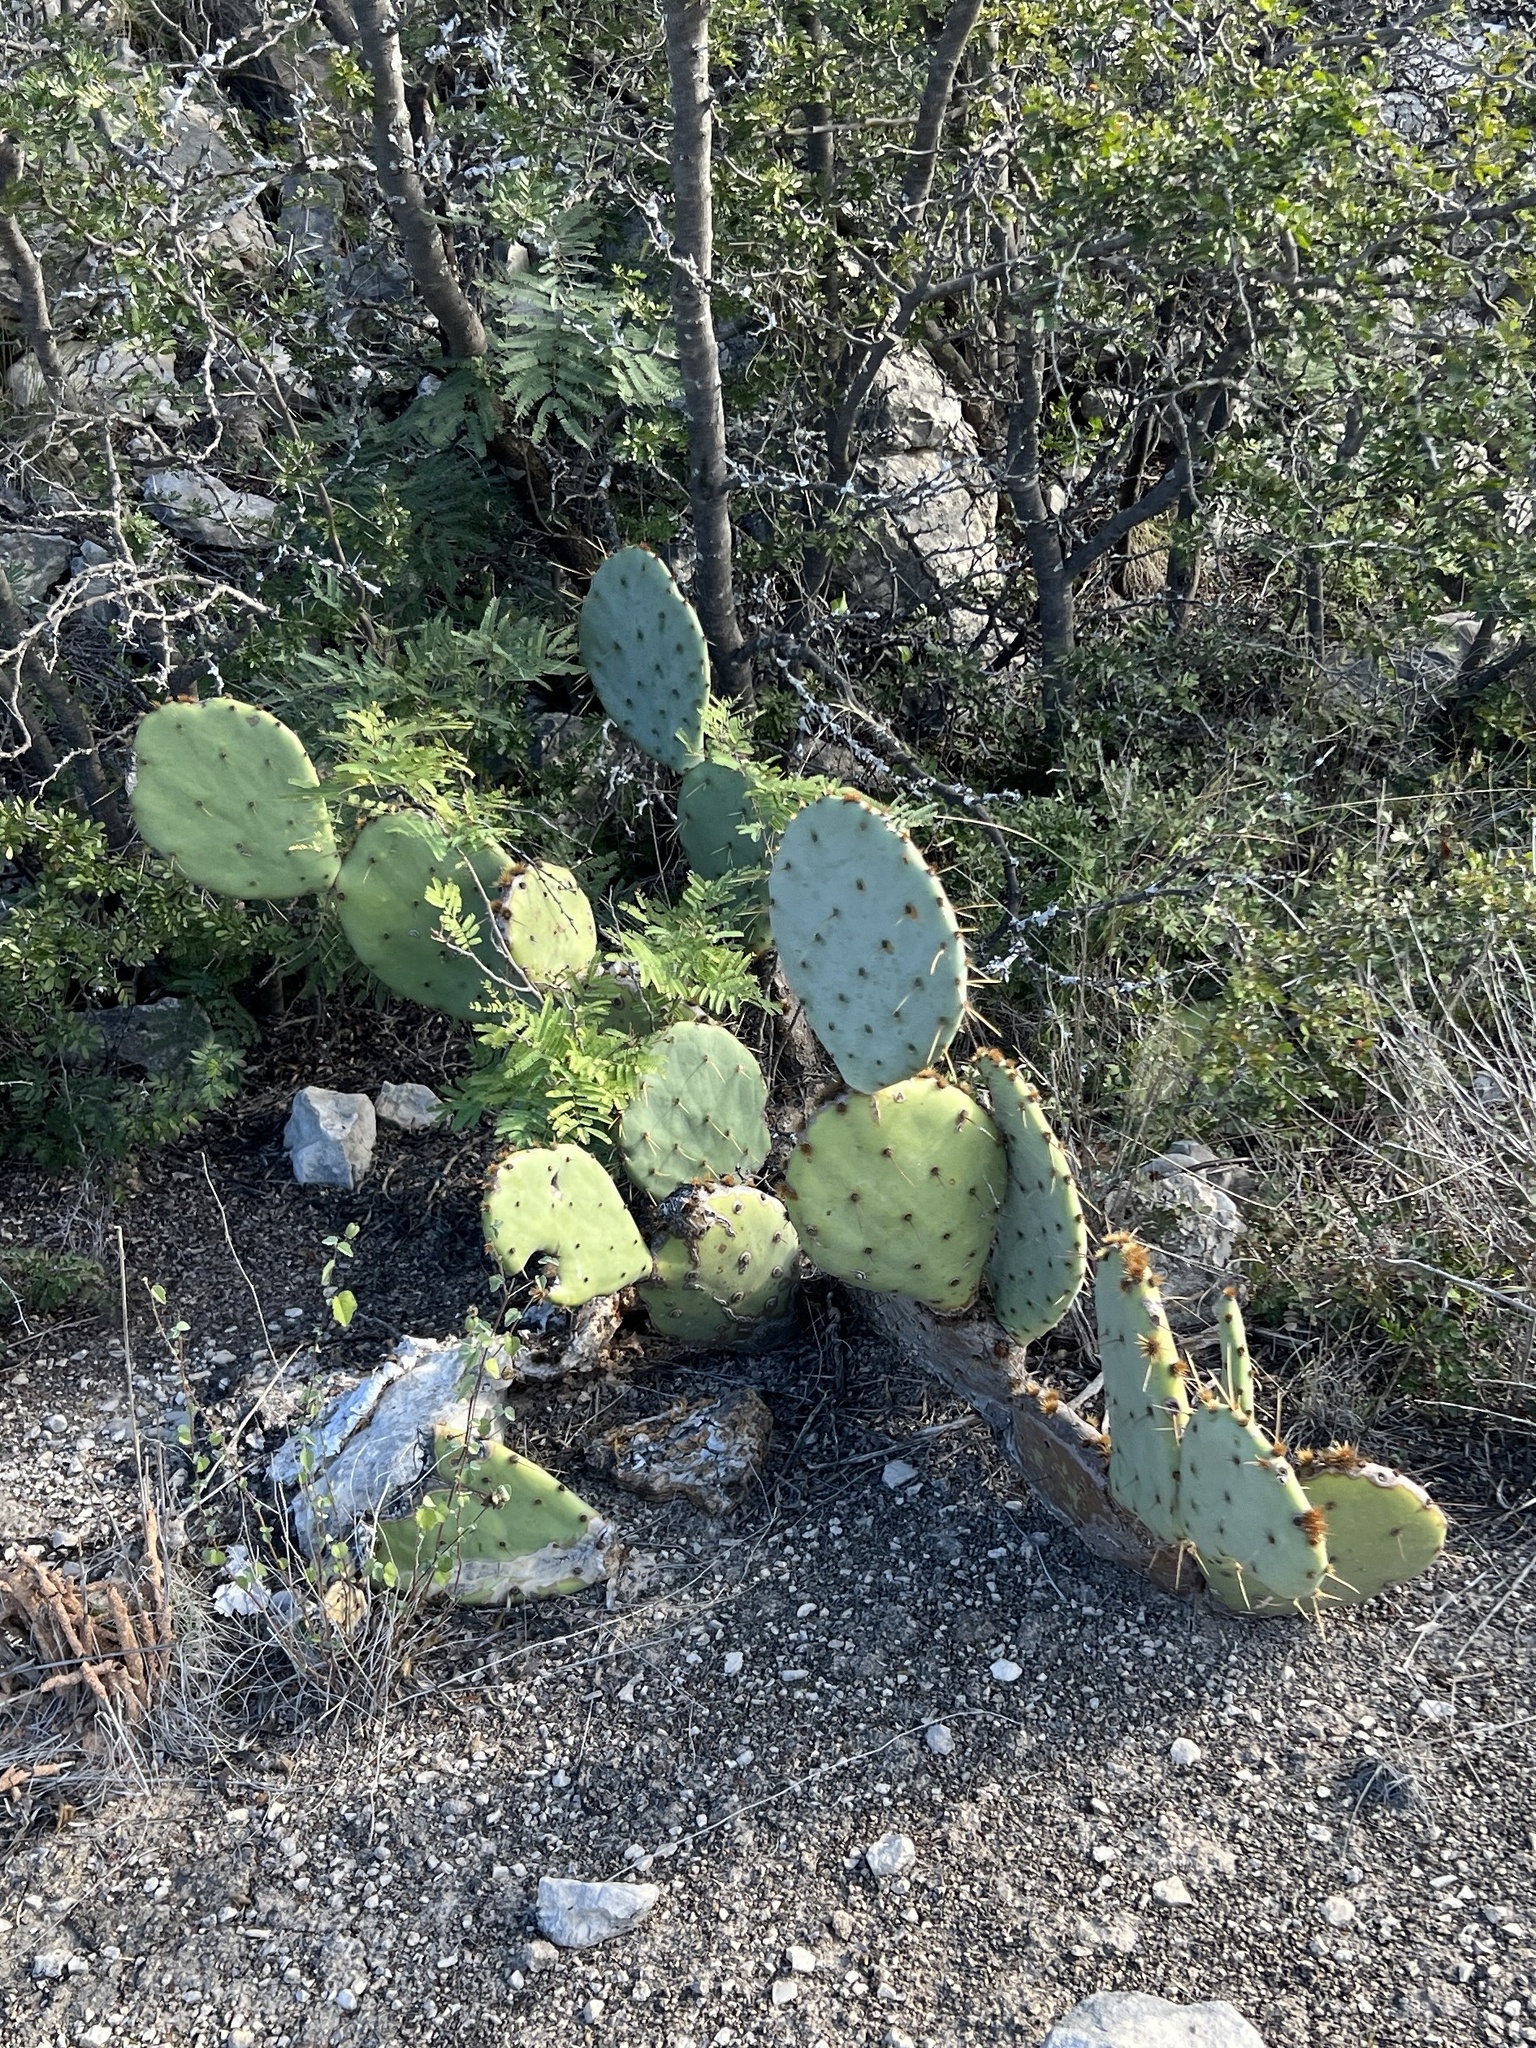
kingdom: Plantae
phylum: Tracheophyta
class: Magnoliopsida
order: Caryophyllales
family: Cactaceae
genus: Opuntia
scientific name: Opuntia engelmannii
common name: Cactus-apple
